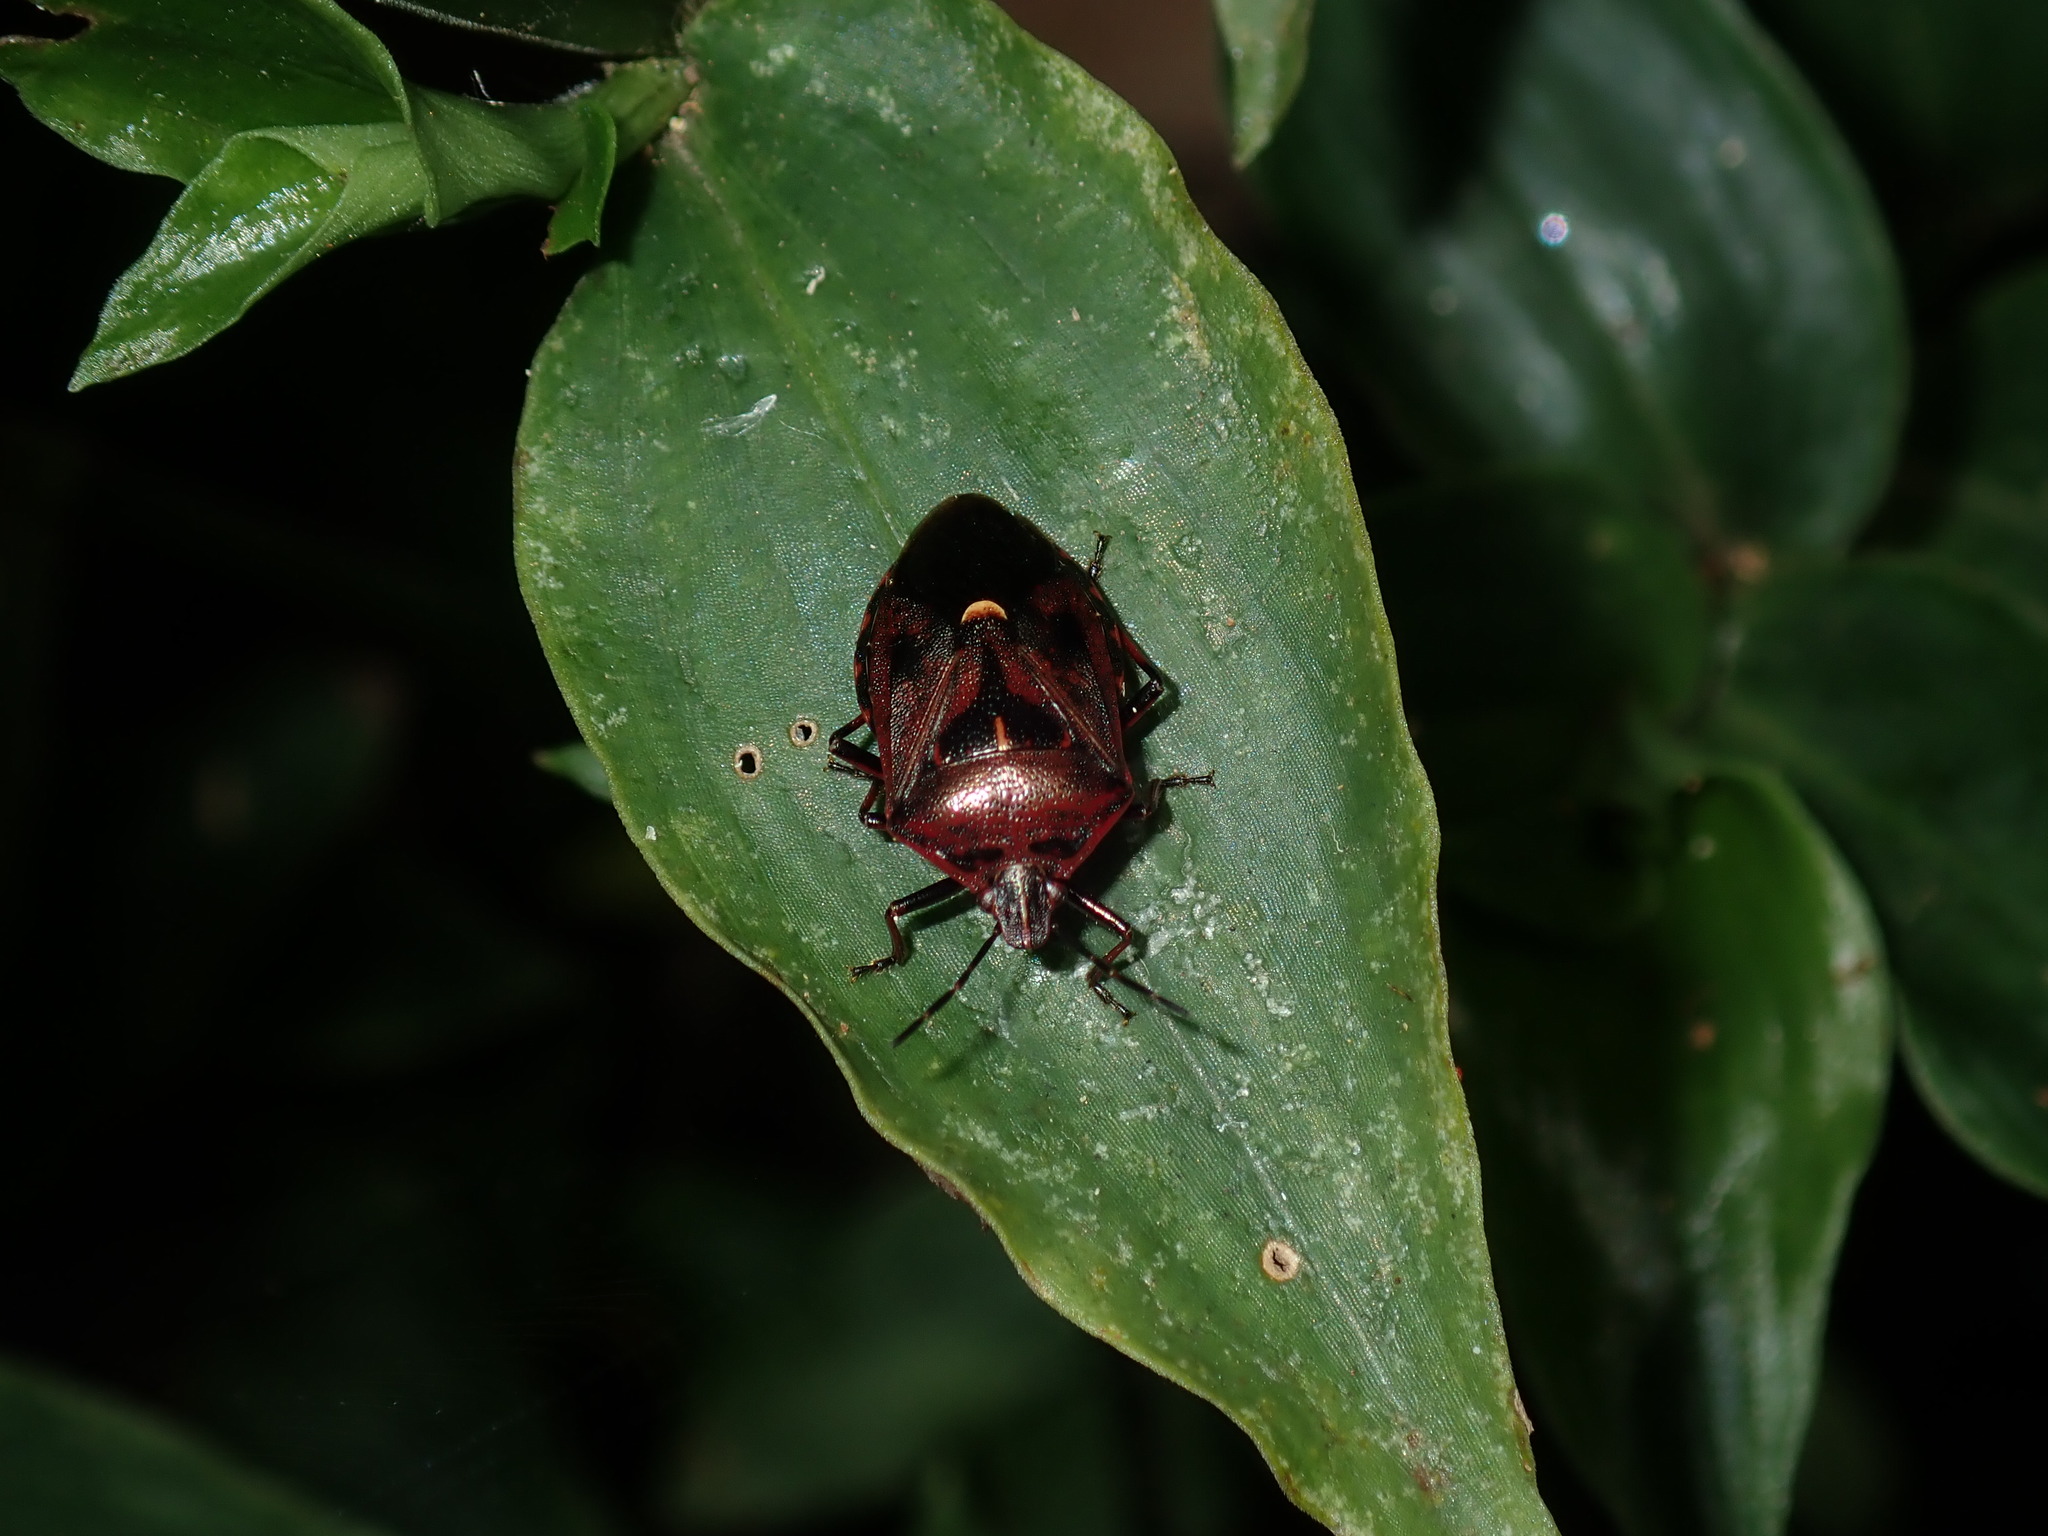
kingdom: Animalia
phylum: Arthropoda
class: Insecta
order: Hemiptera
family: Pentatomidae
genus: Cermatulus
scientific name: Cermatulus nasalis
